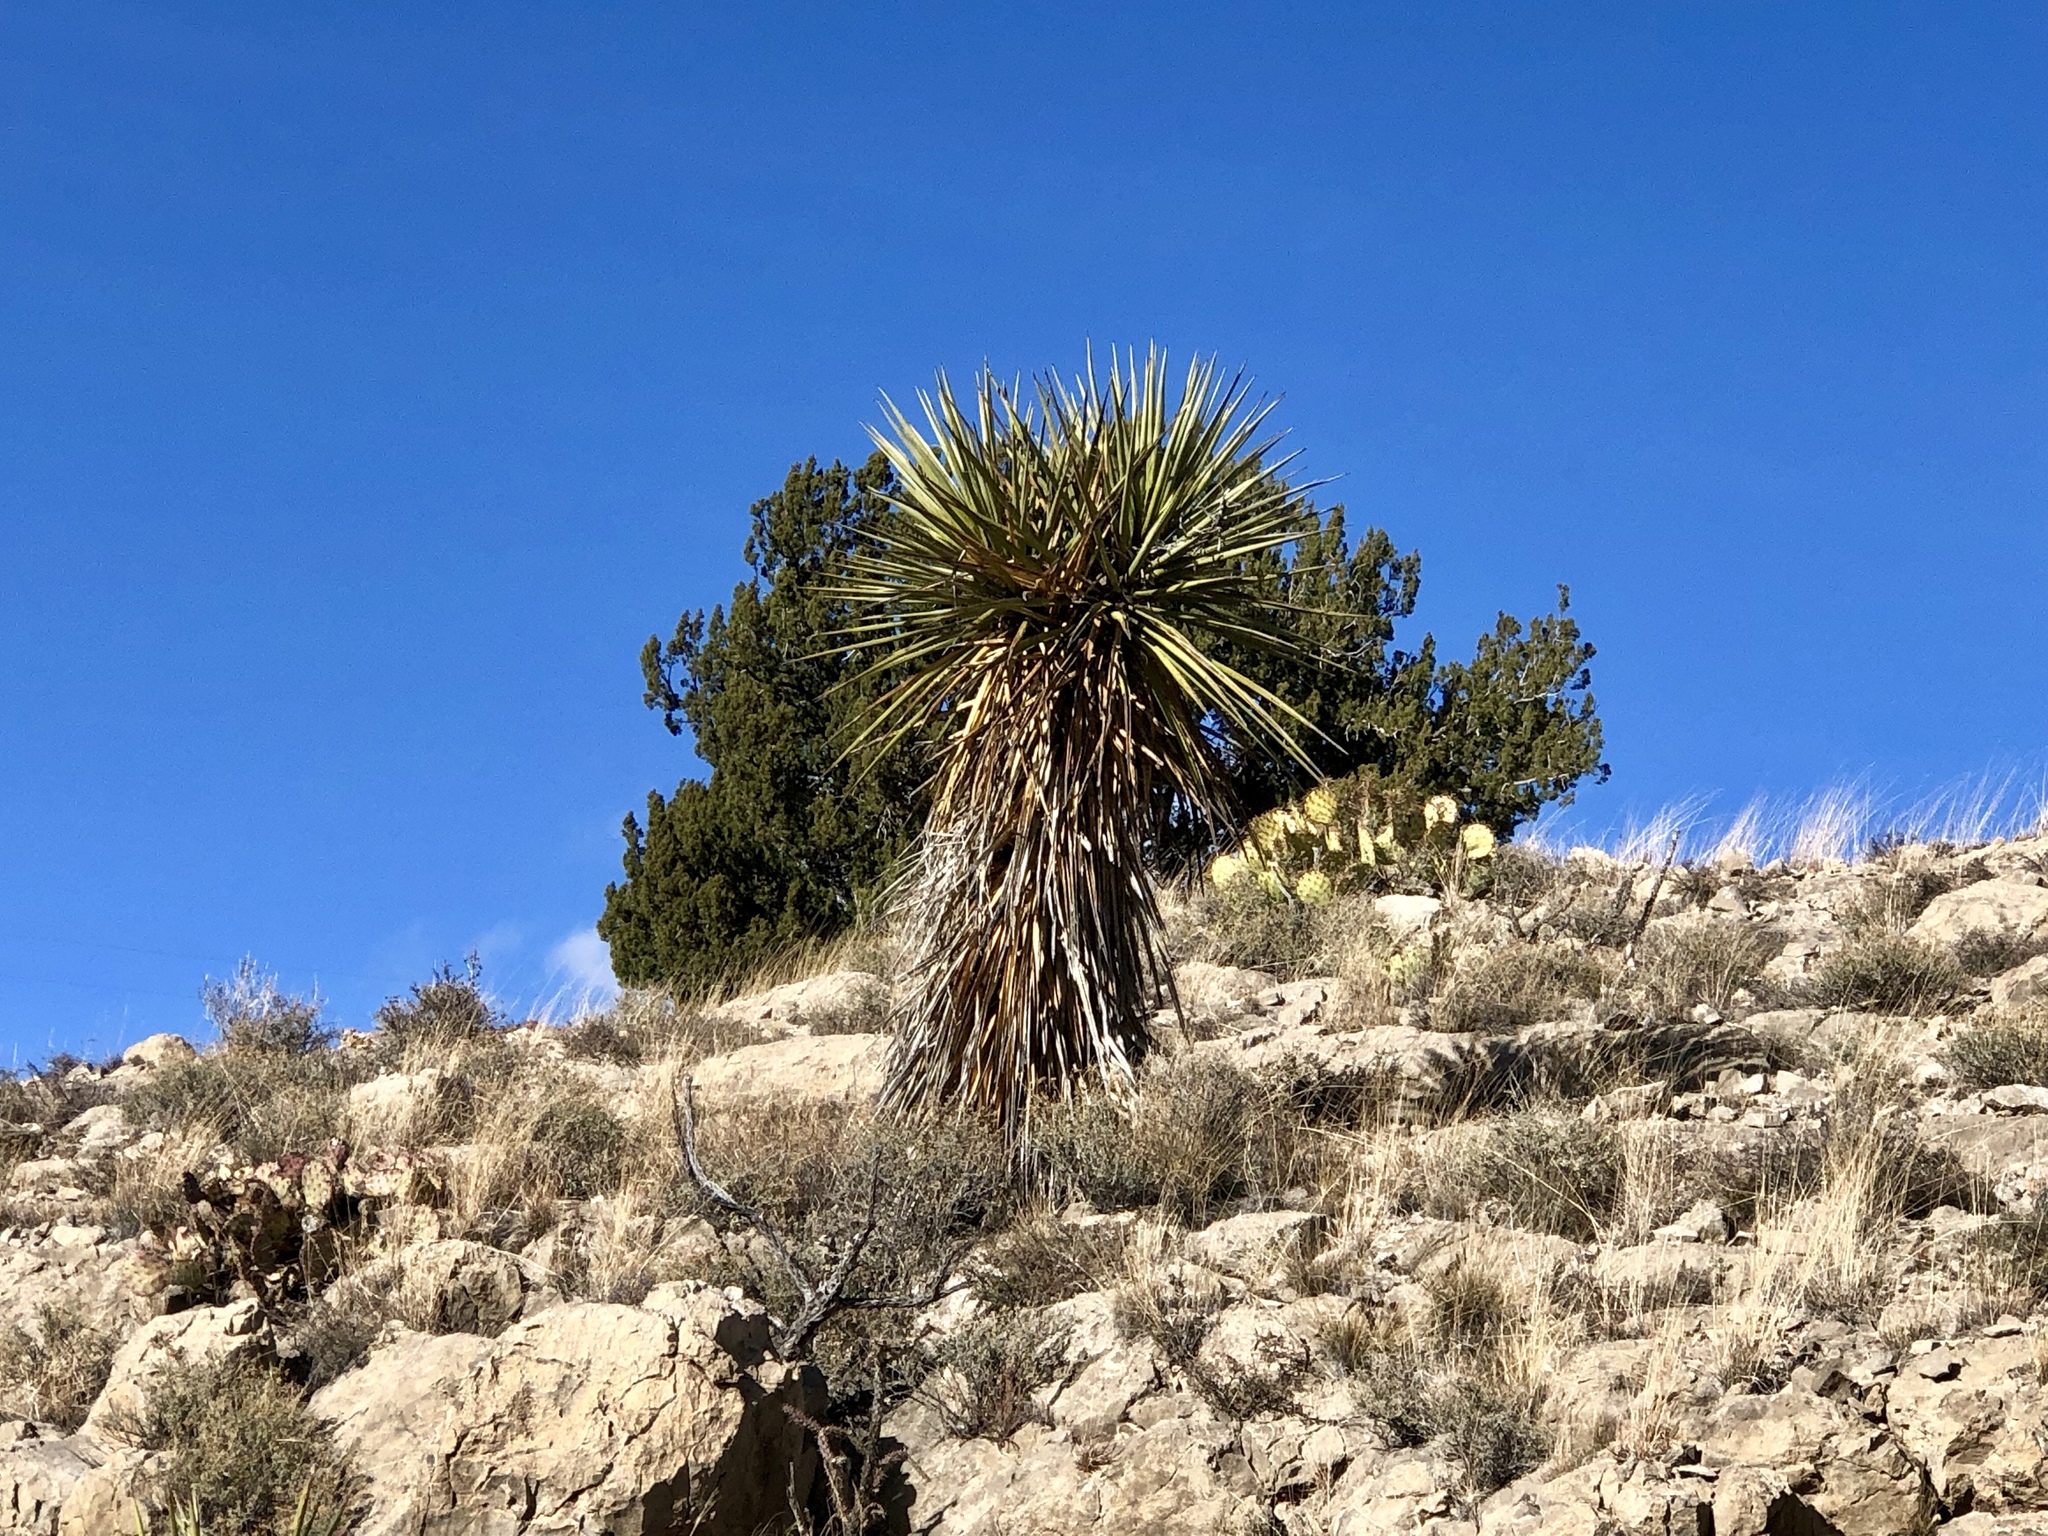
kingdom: Plantae
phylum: Tracheophyta
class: Liliopsida
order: Asparagales
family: Asparagaceae
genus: Yucca
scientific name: Yucca treculiana
